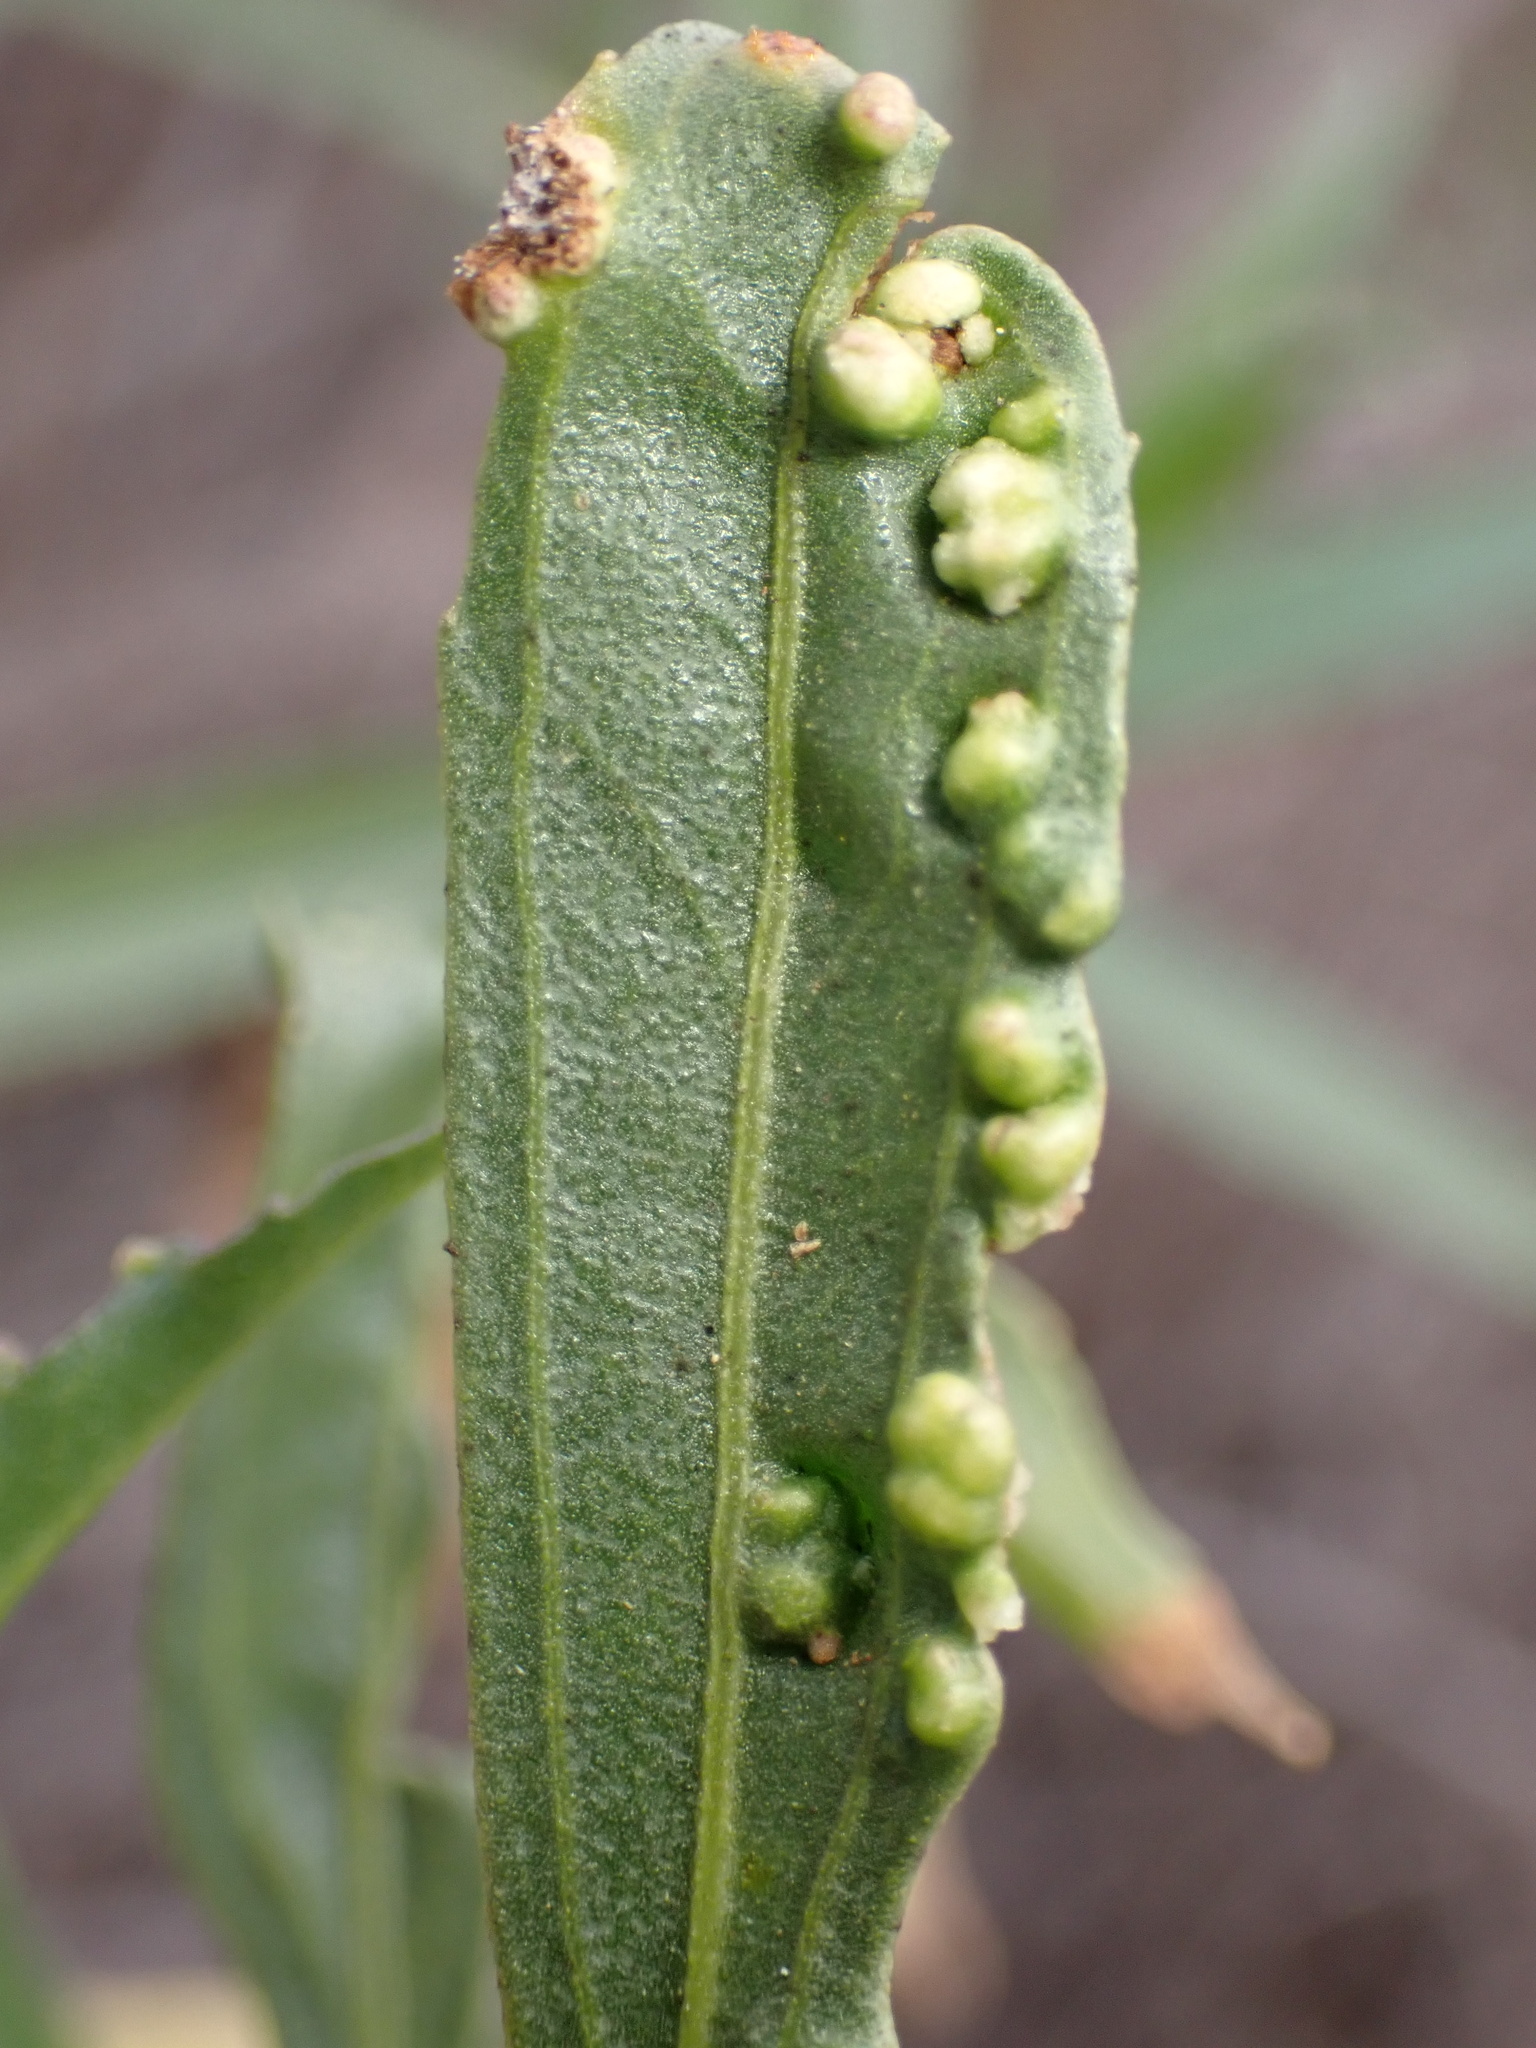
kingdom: Animalia
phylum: Arthropoda
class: Arachnida
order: Trombidiformes
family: Eriophyidae
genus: Aceria
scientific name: Aceria
